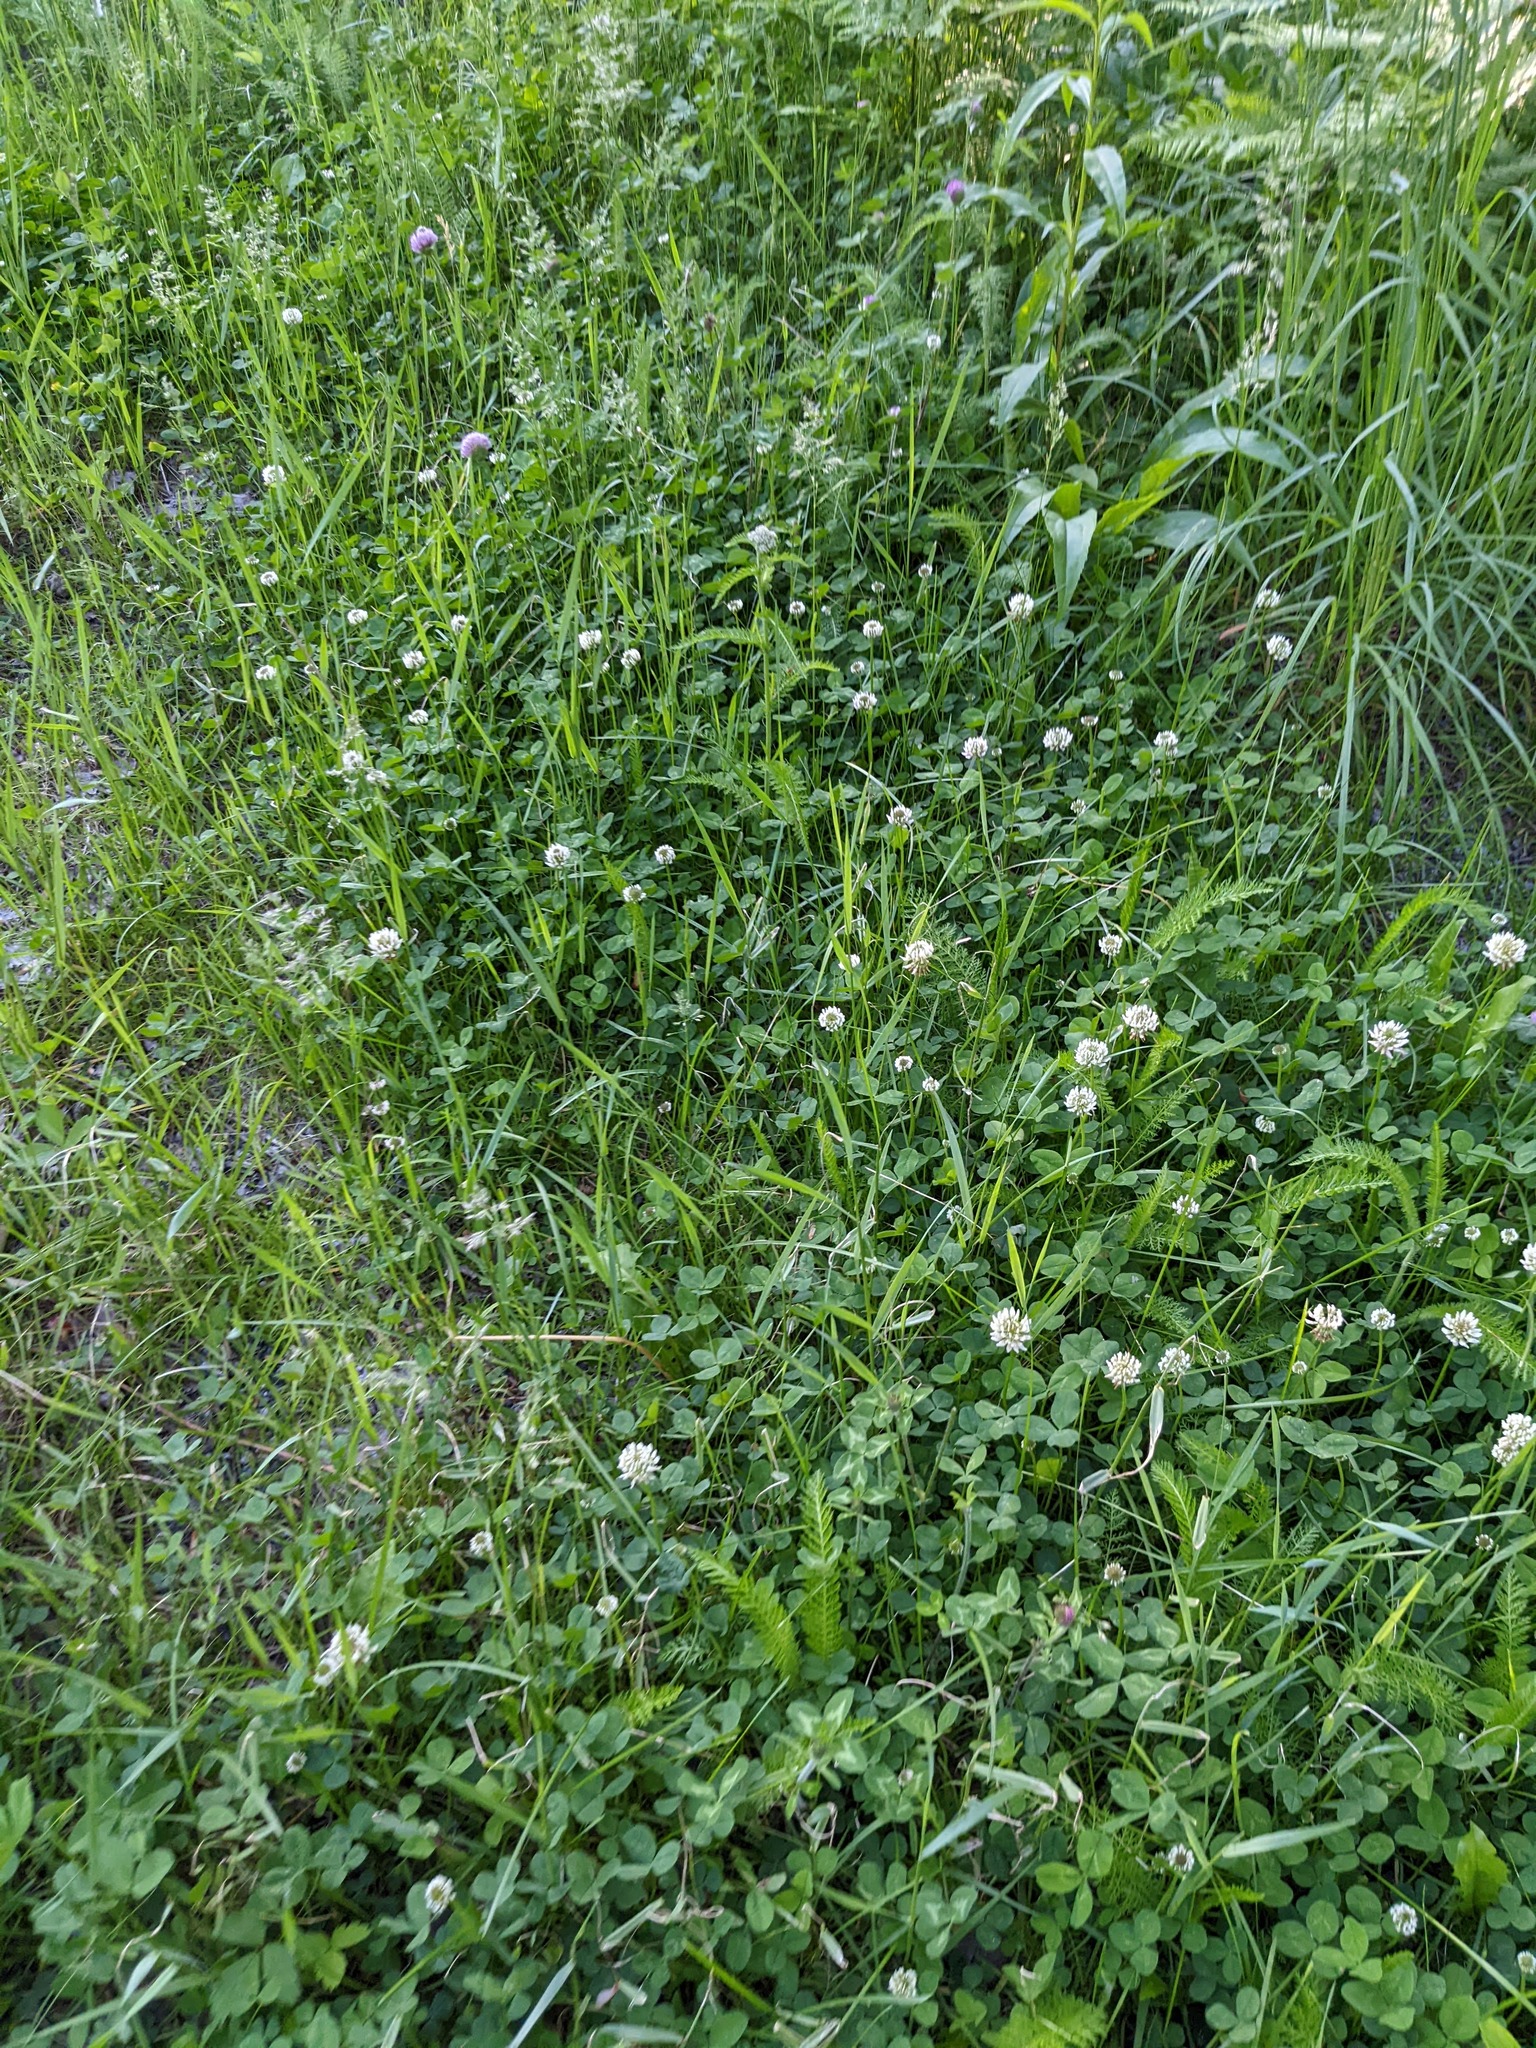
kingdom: Plantae
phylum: Tracheophyta
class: Magnoliopsida
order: Fabales
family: Fabaceae
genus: Trifolium
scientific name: Trifolium repens
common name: White clover
